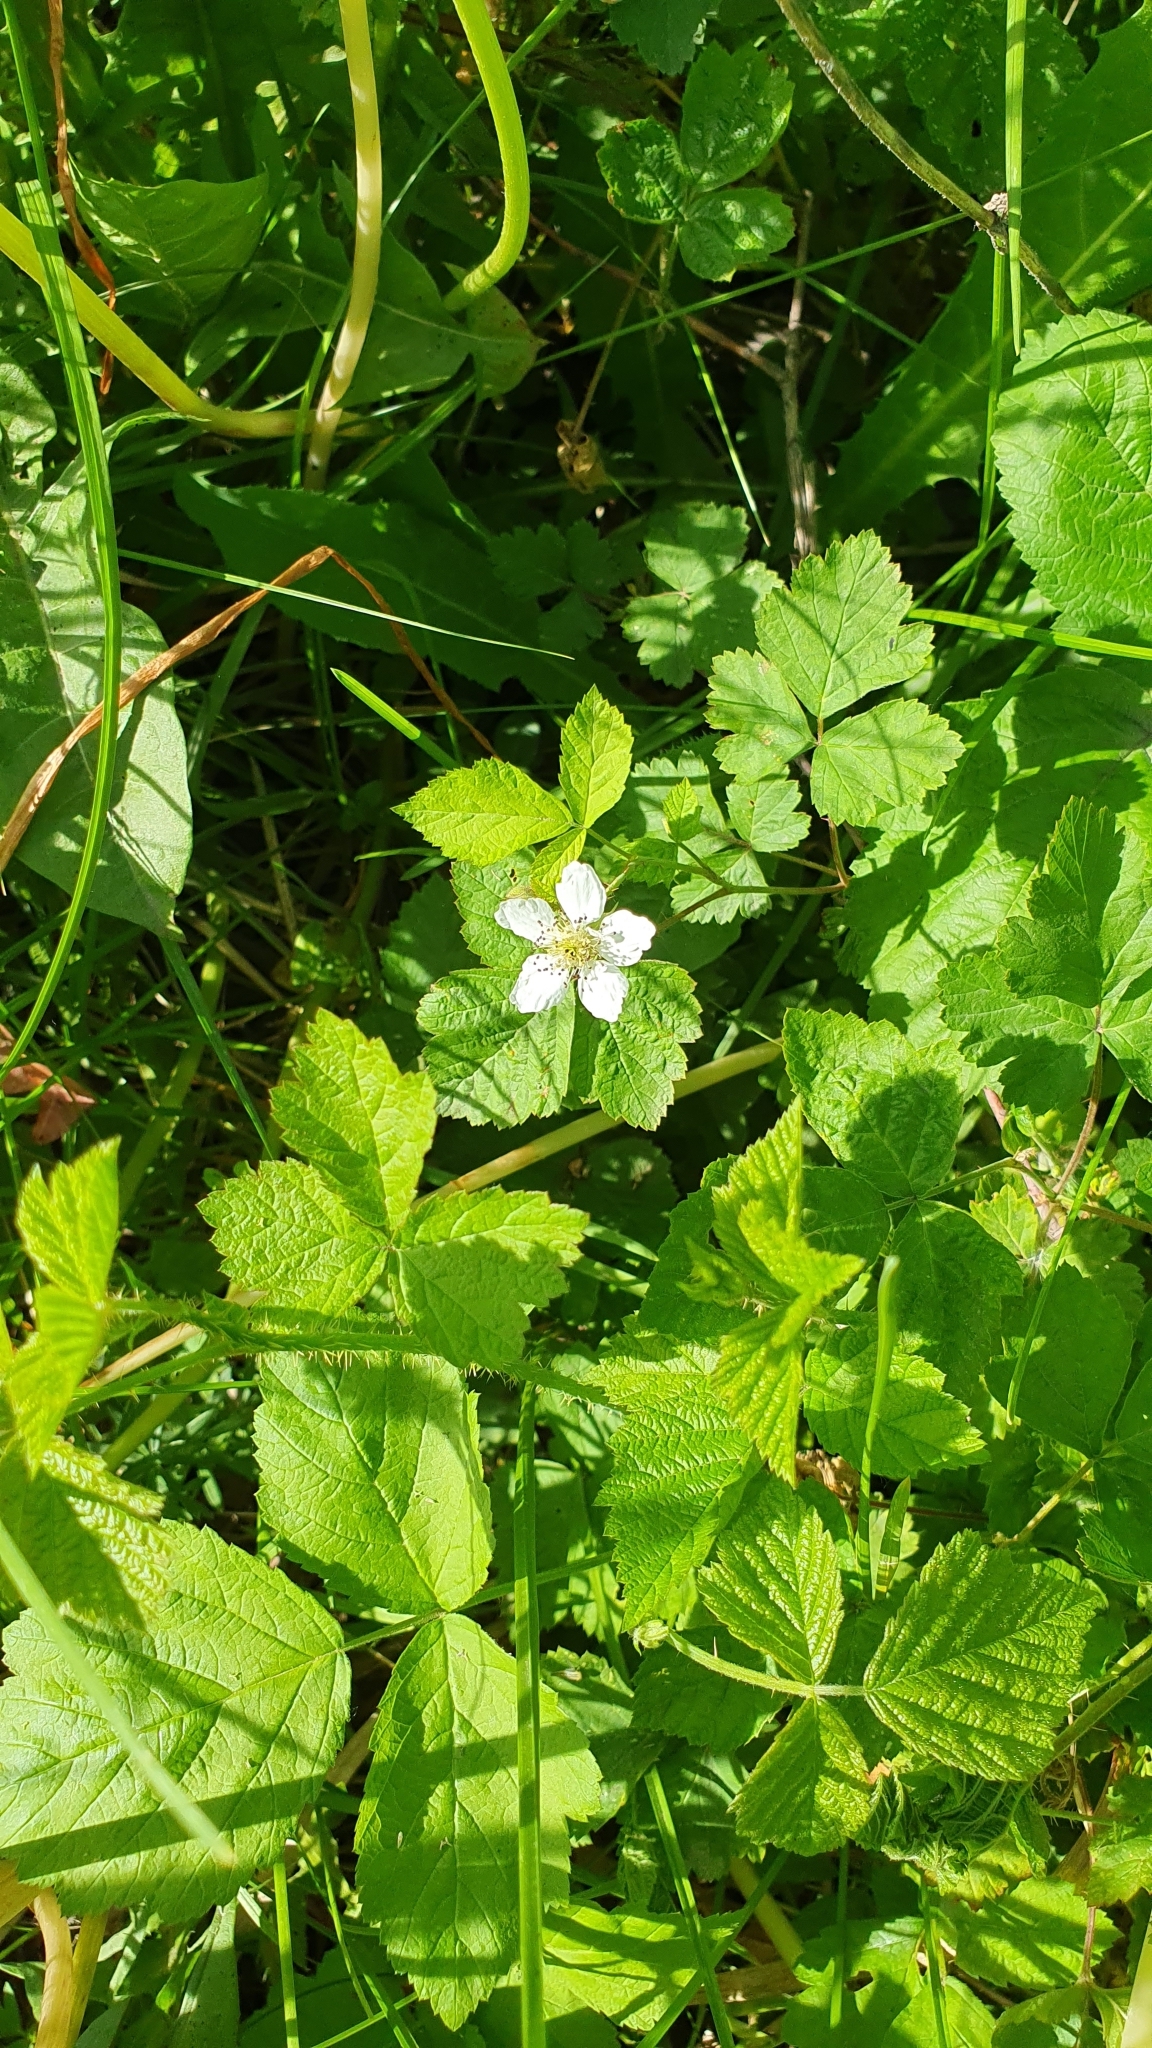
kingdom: Plantae
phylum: Tracheophyta
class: Magnoliopsida
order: Rosales
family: Rosaceae
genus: Rubus
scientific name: Rubus caesius
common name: Dewberry
